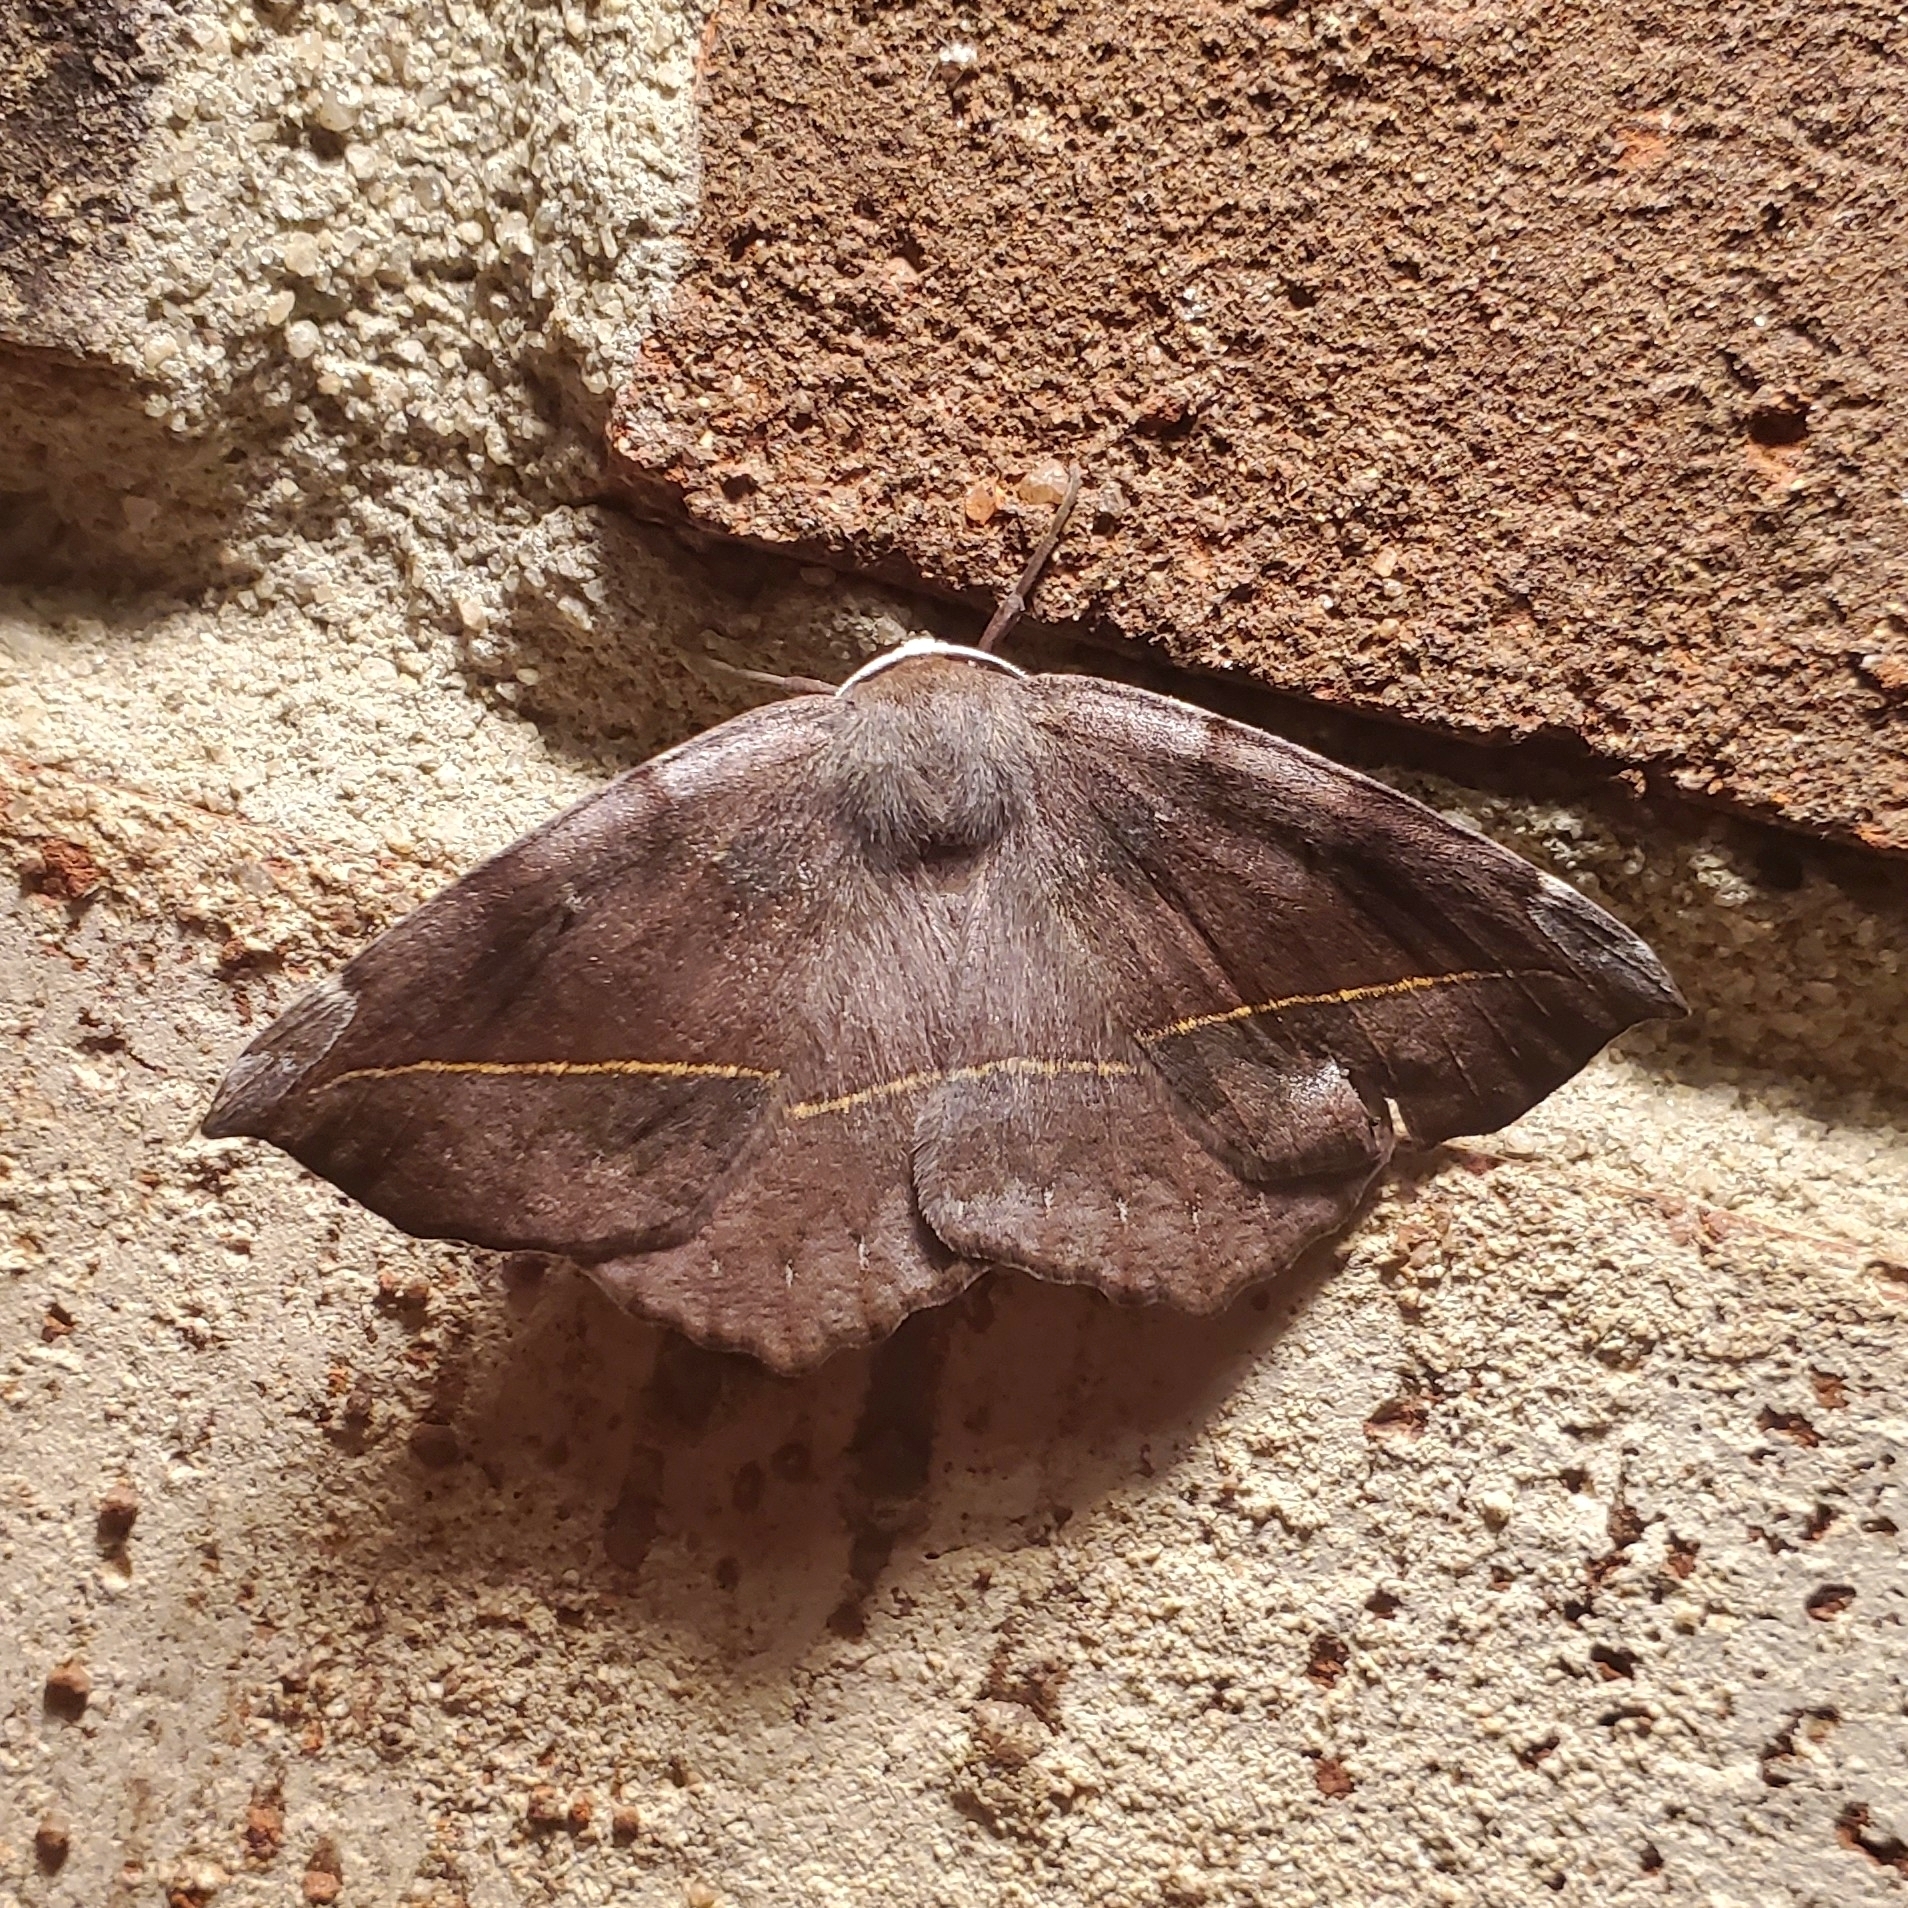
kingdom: Animalia
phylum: Arthropoda
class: Insecta
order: Lepidoptera
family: Geometridae
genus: Eutrapela
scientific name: Eutrapela clemataria
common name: Curved-toothed geometer
